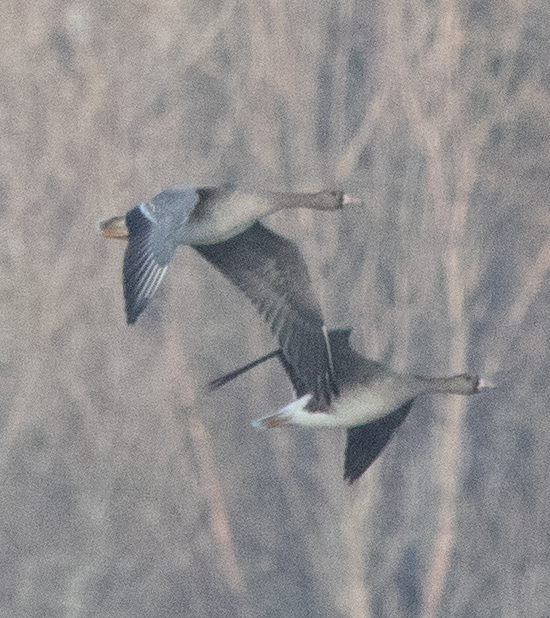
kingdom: Animalia
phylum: Chordata
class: Aves
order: Anseriformes
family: Anatidae
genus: Anser
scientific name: Anser albifrons
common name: Greater white-fronted goose
